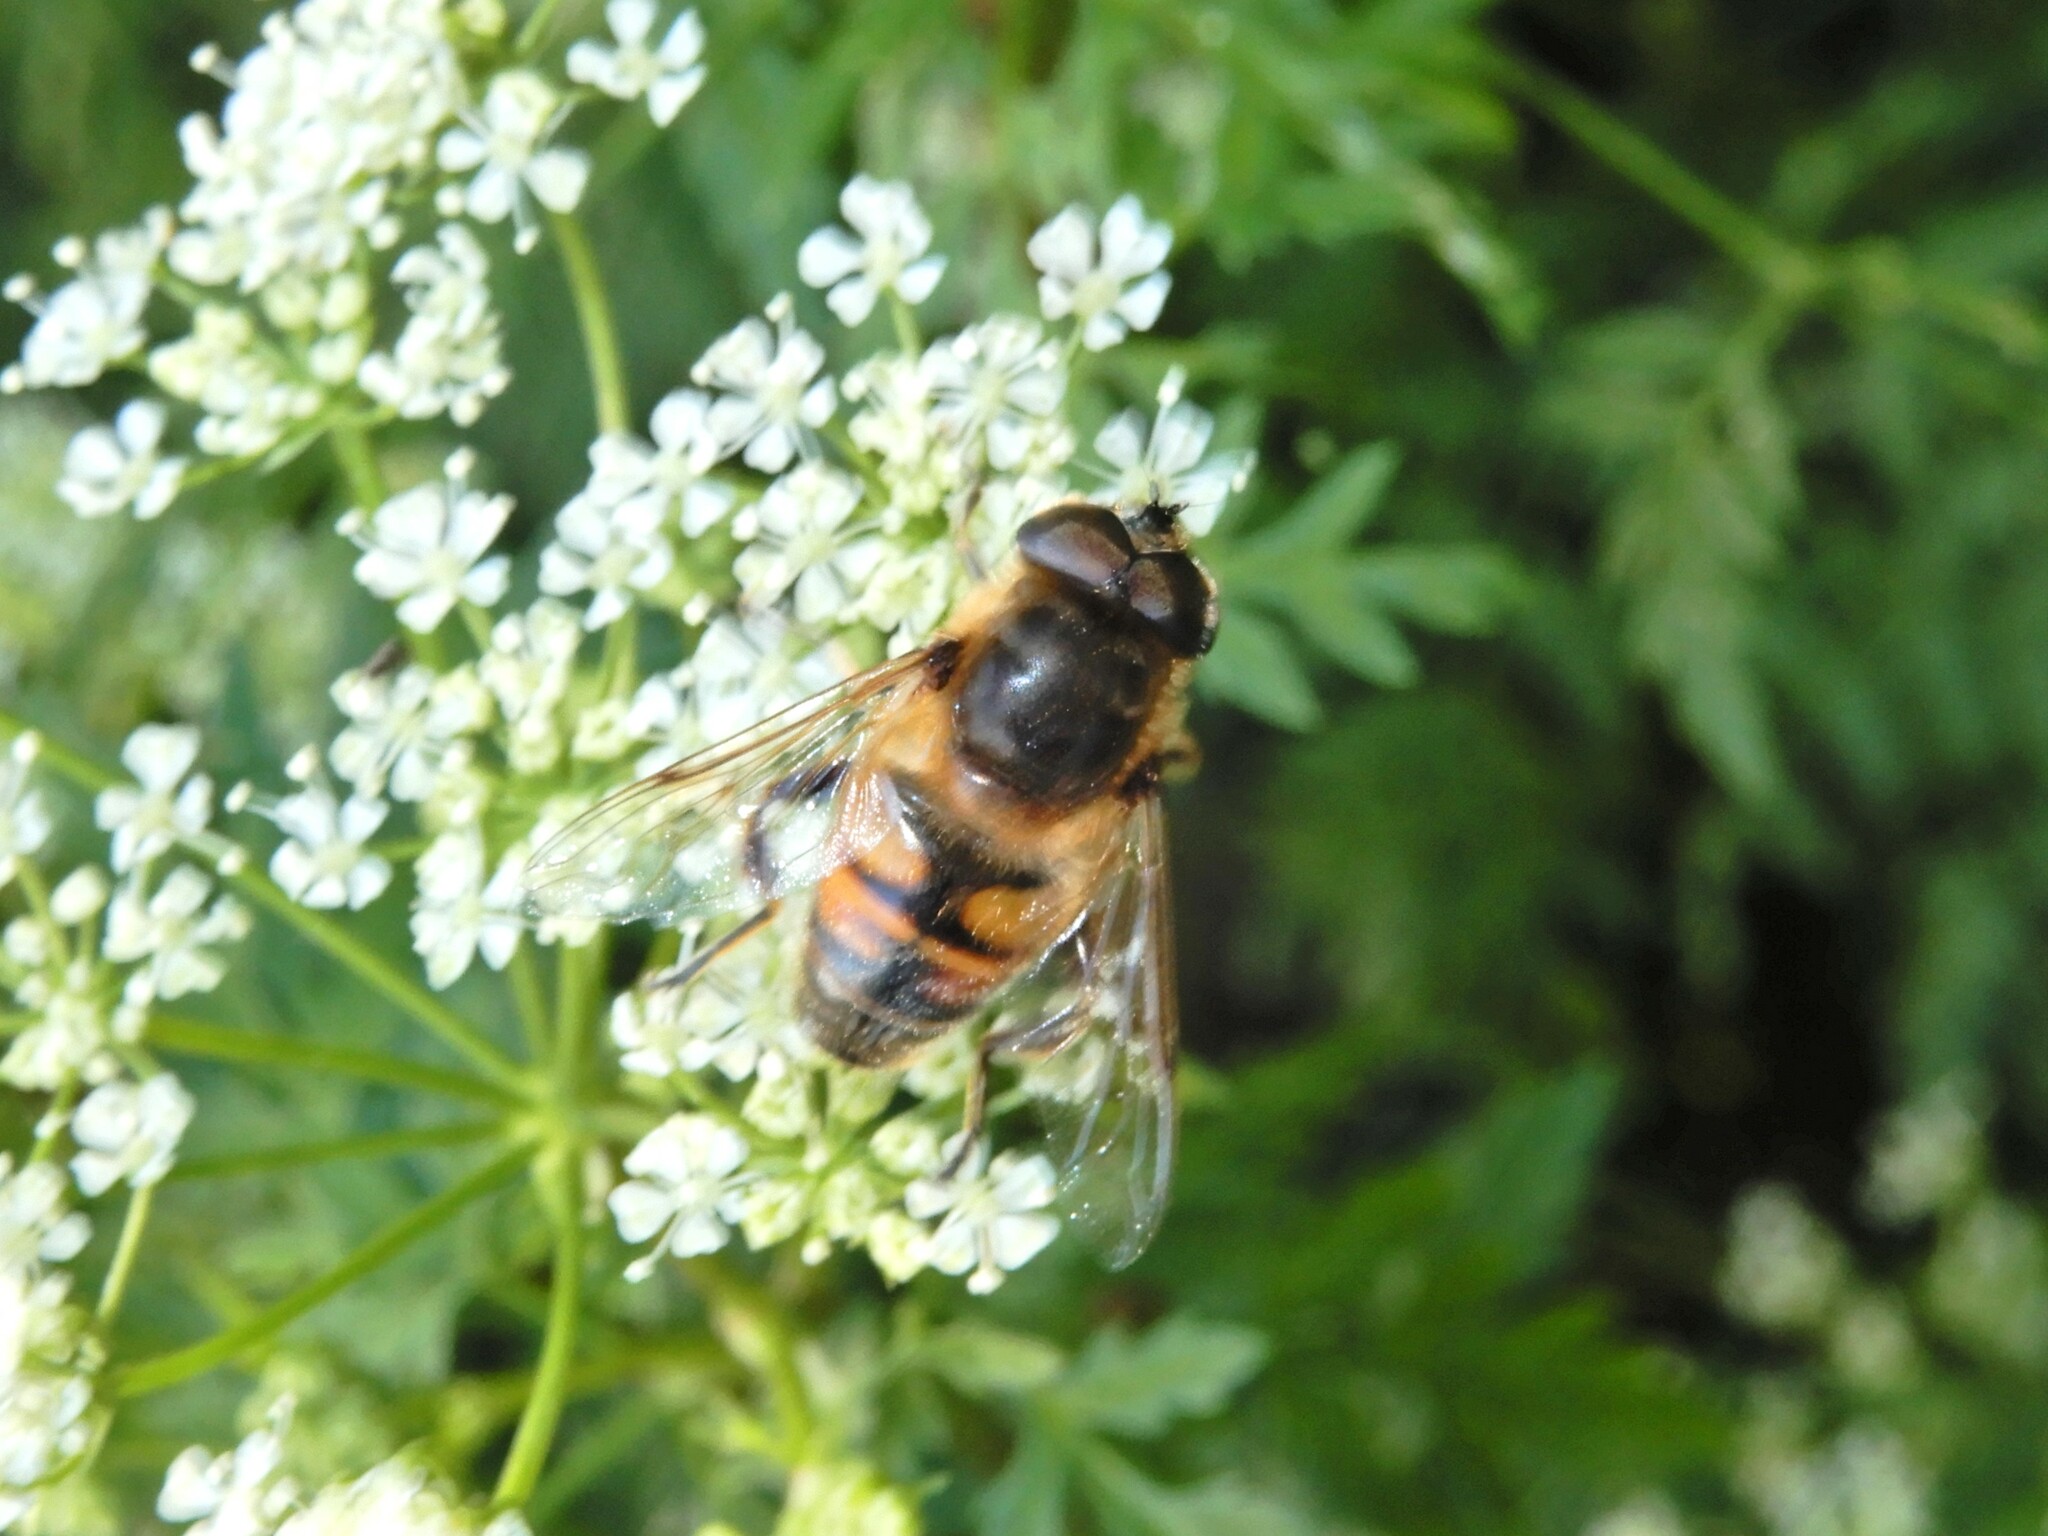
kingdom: Animalia
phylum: Arthropoda
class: Insecta
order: Diptera
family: Syrphidae
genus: Eristalis
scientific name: Eristalis tenax
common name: Drone fly
